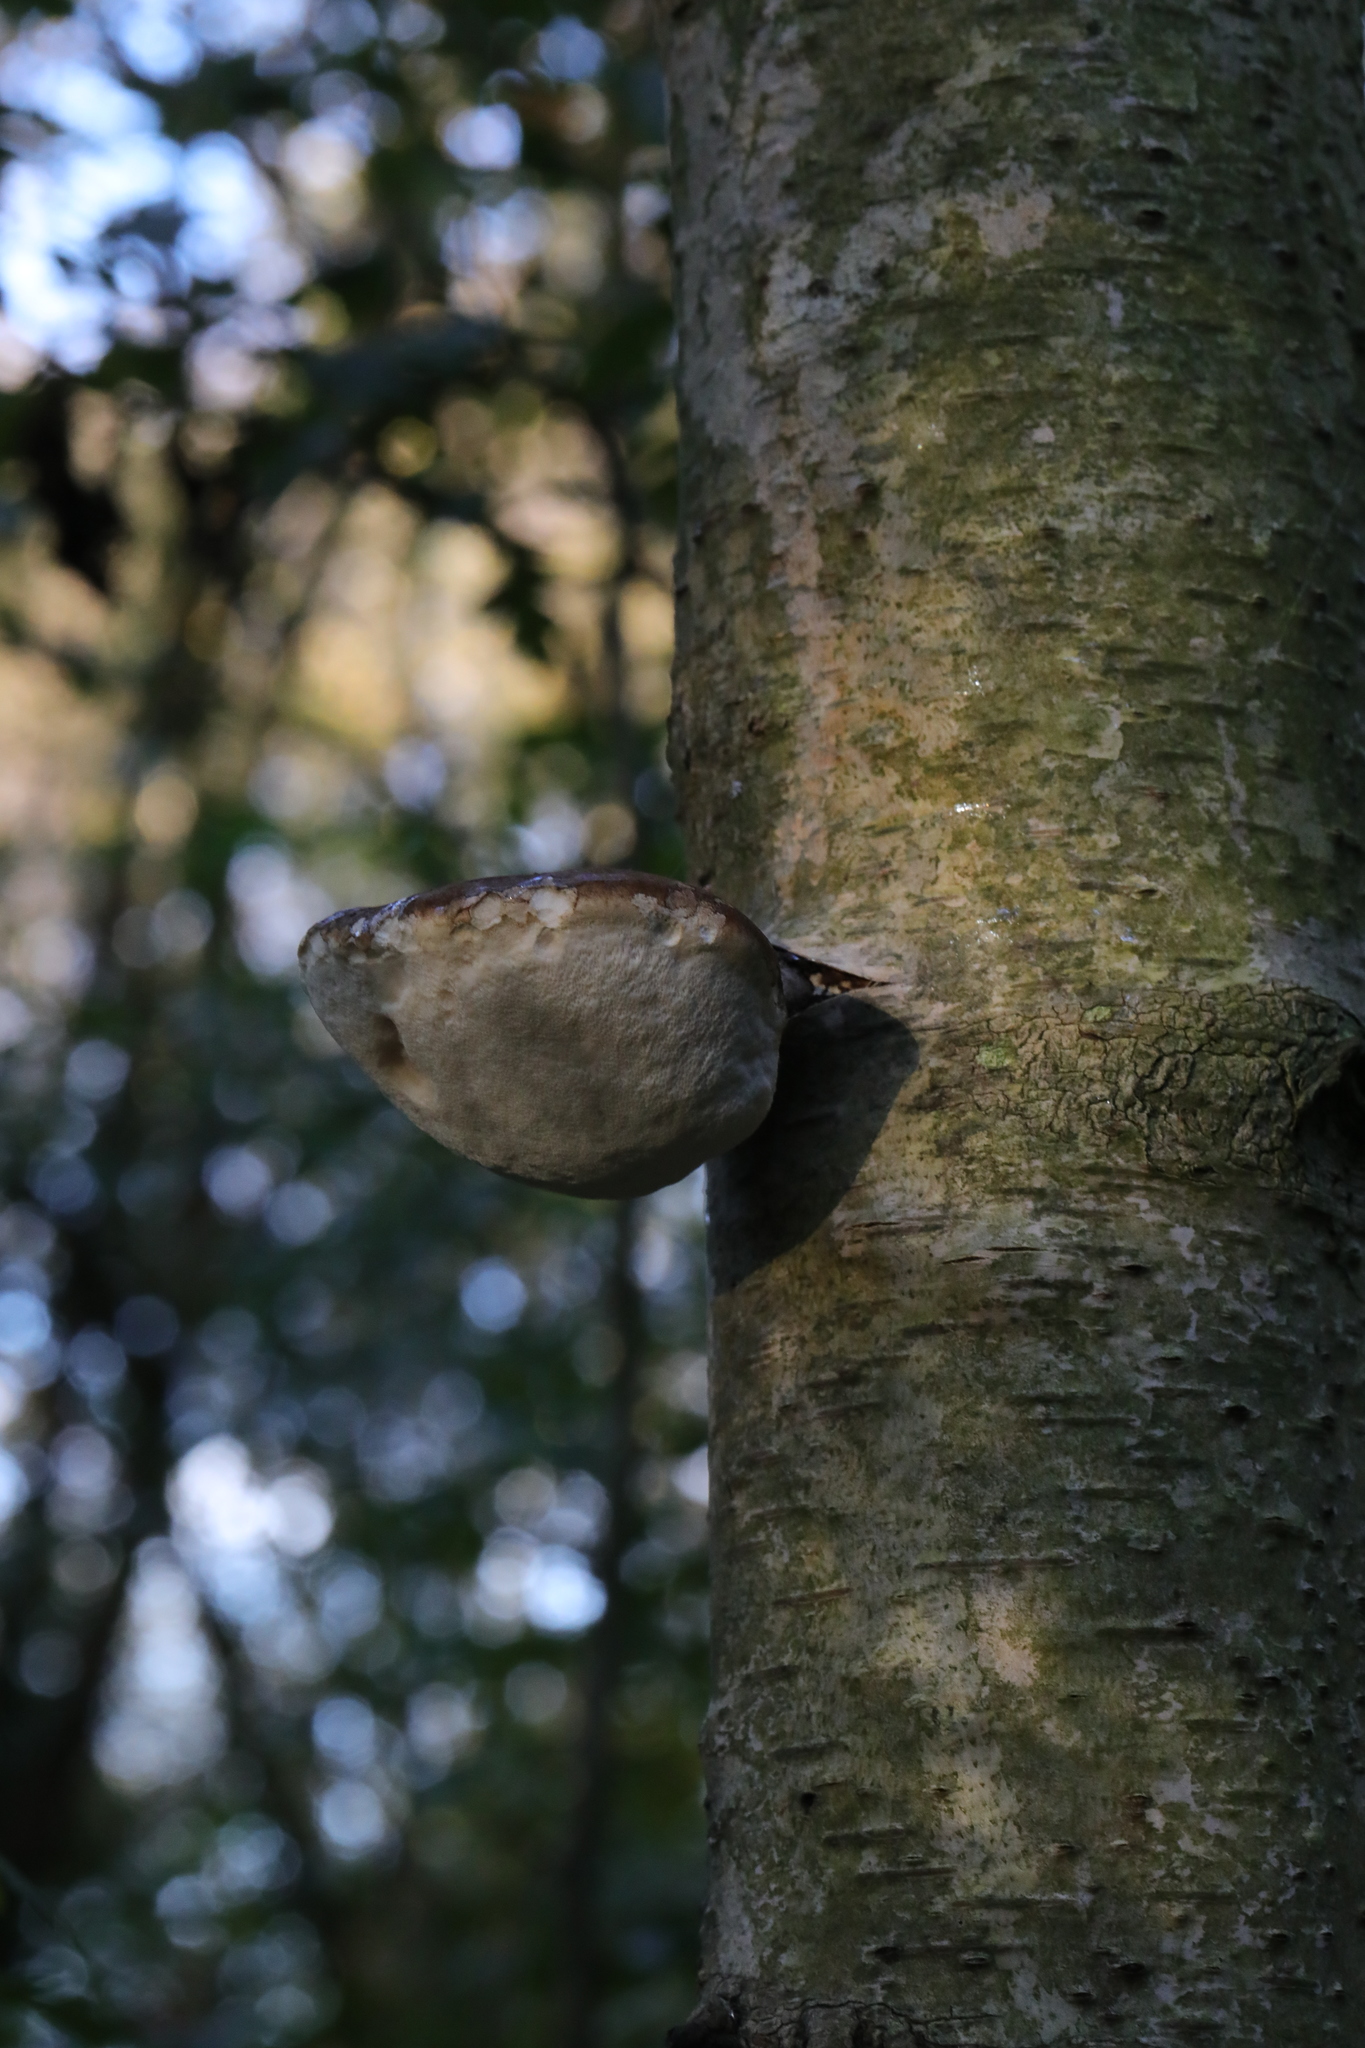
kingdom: Fungi
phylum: Basidiomycota
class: Agaricomycetes
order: Polyporales
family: Fomitopsidaceae
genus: Fomitopsis
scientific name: Fomitopsis betulina
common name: Birch polypore
